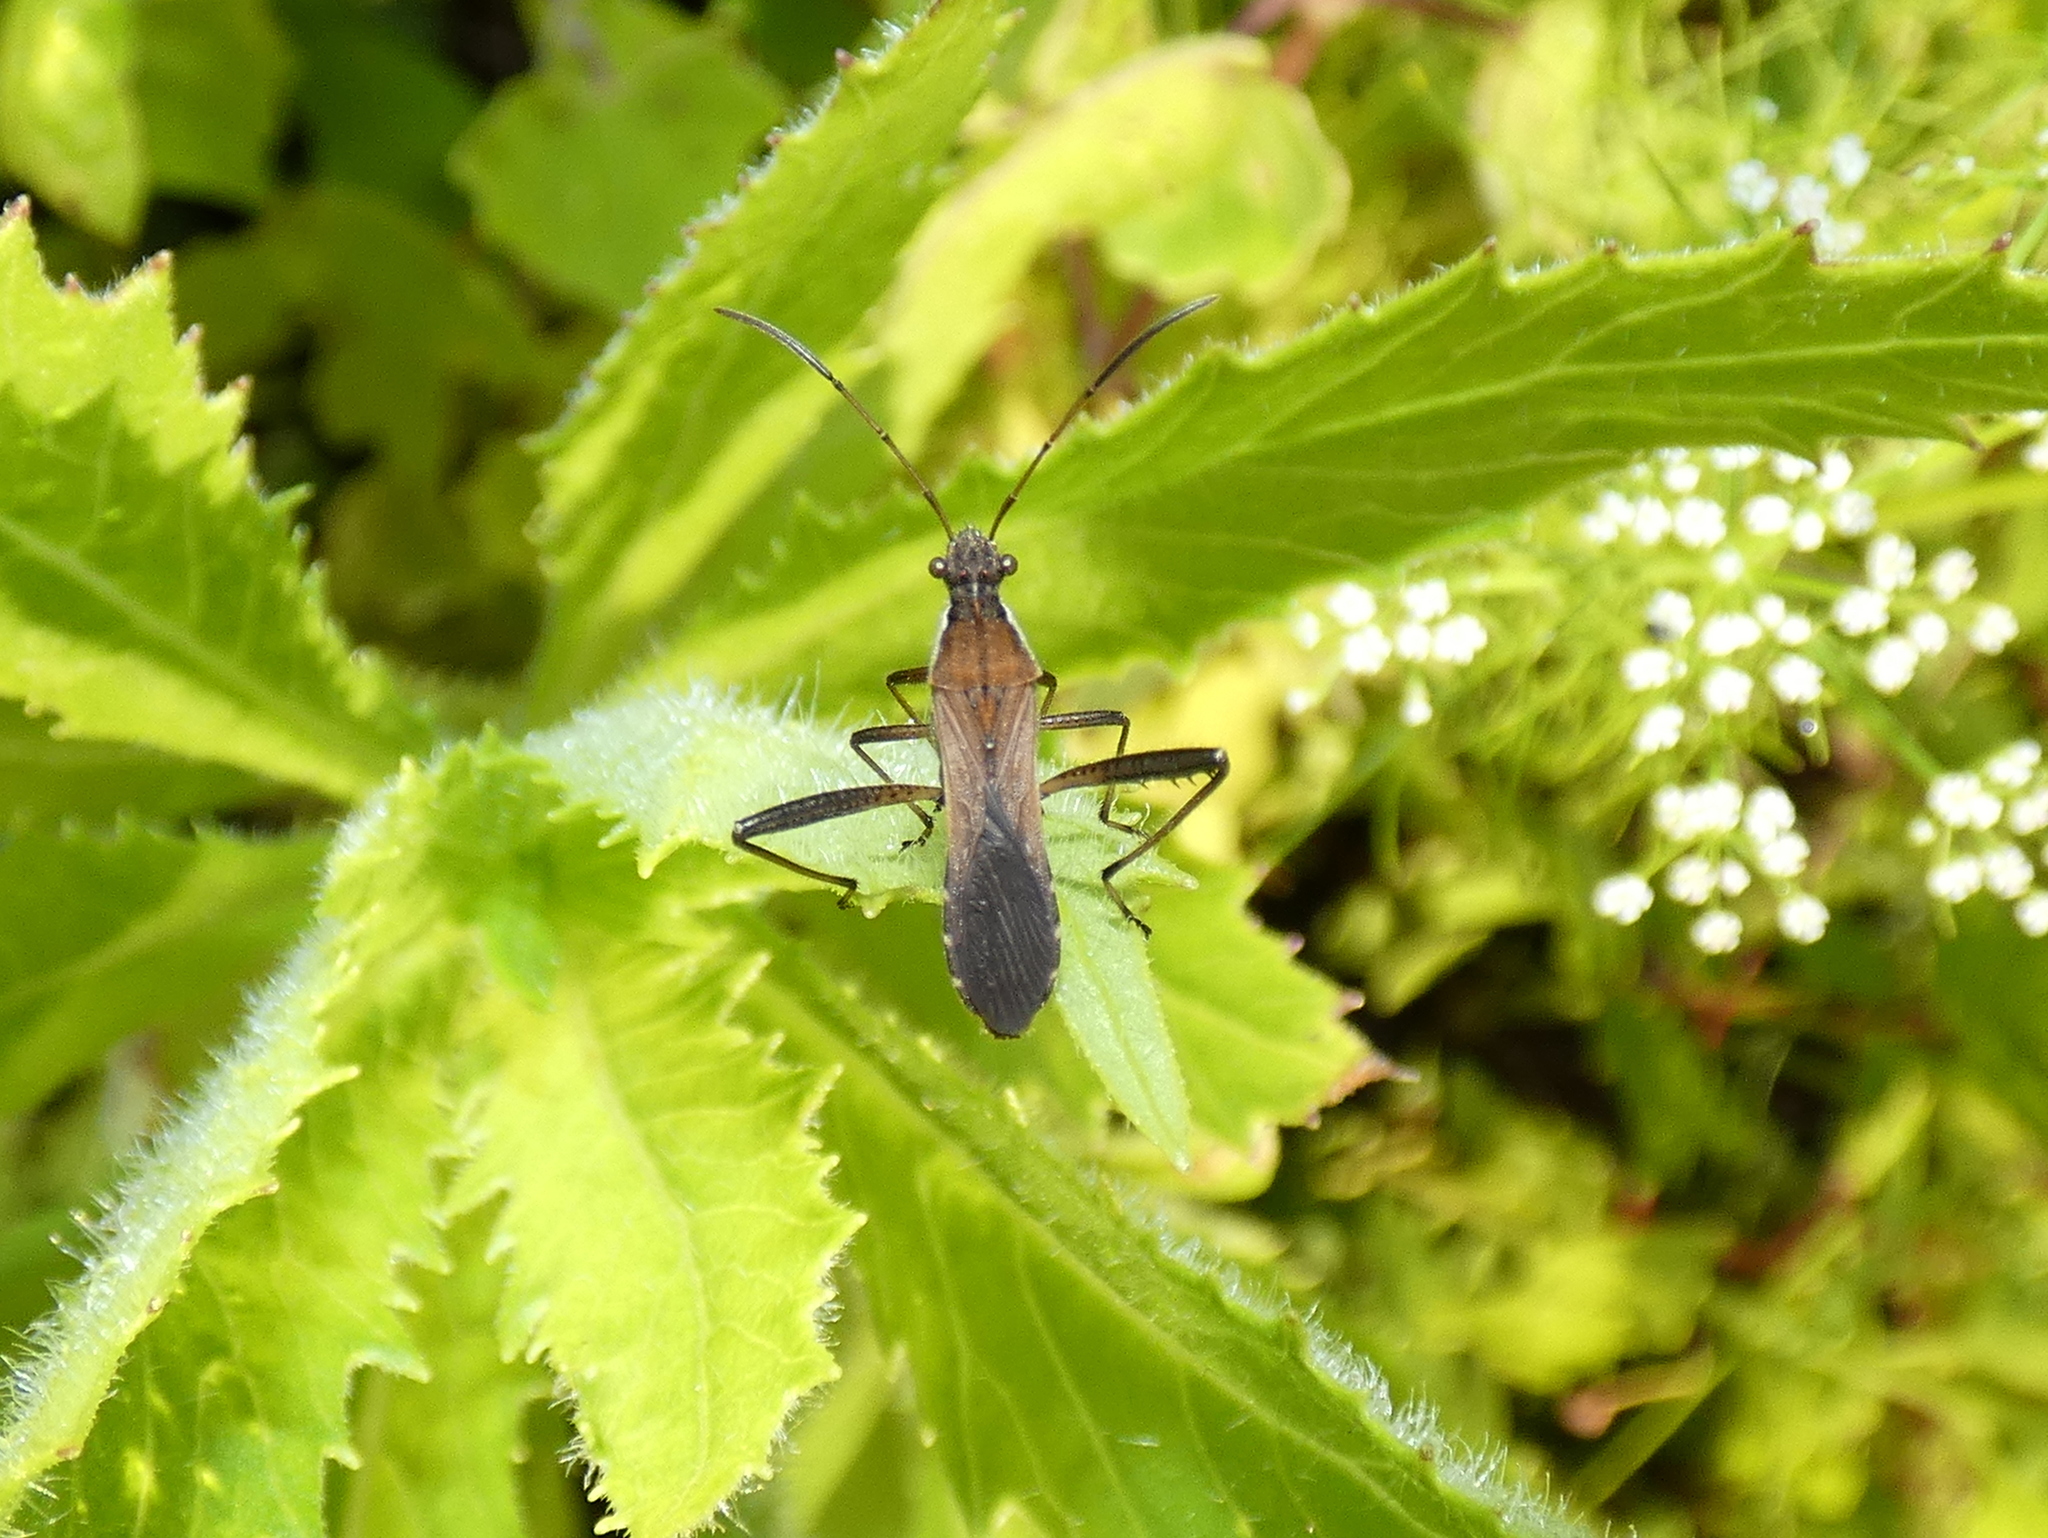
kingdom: Animalia
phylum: Arthropoda
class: Insecta
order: Hemiptera
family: Alydidae
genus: Alydus
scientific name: Alydus pilosulus
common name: Broad-headed bug
